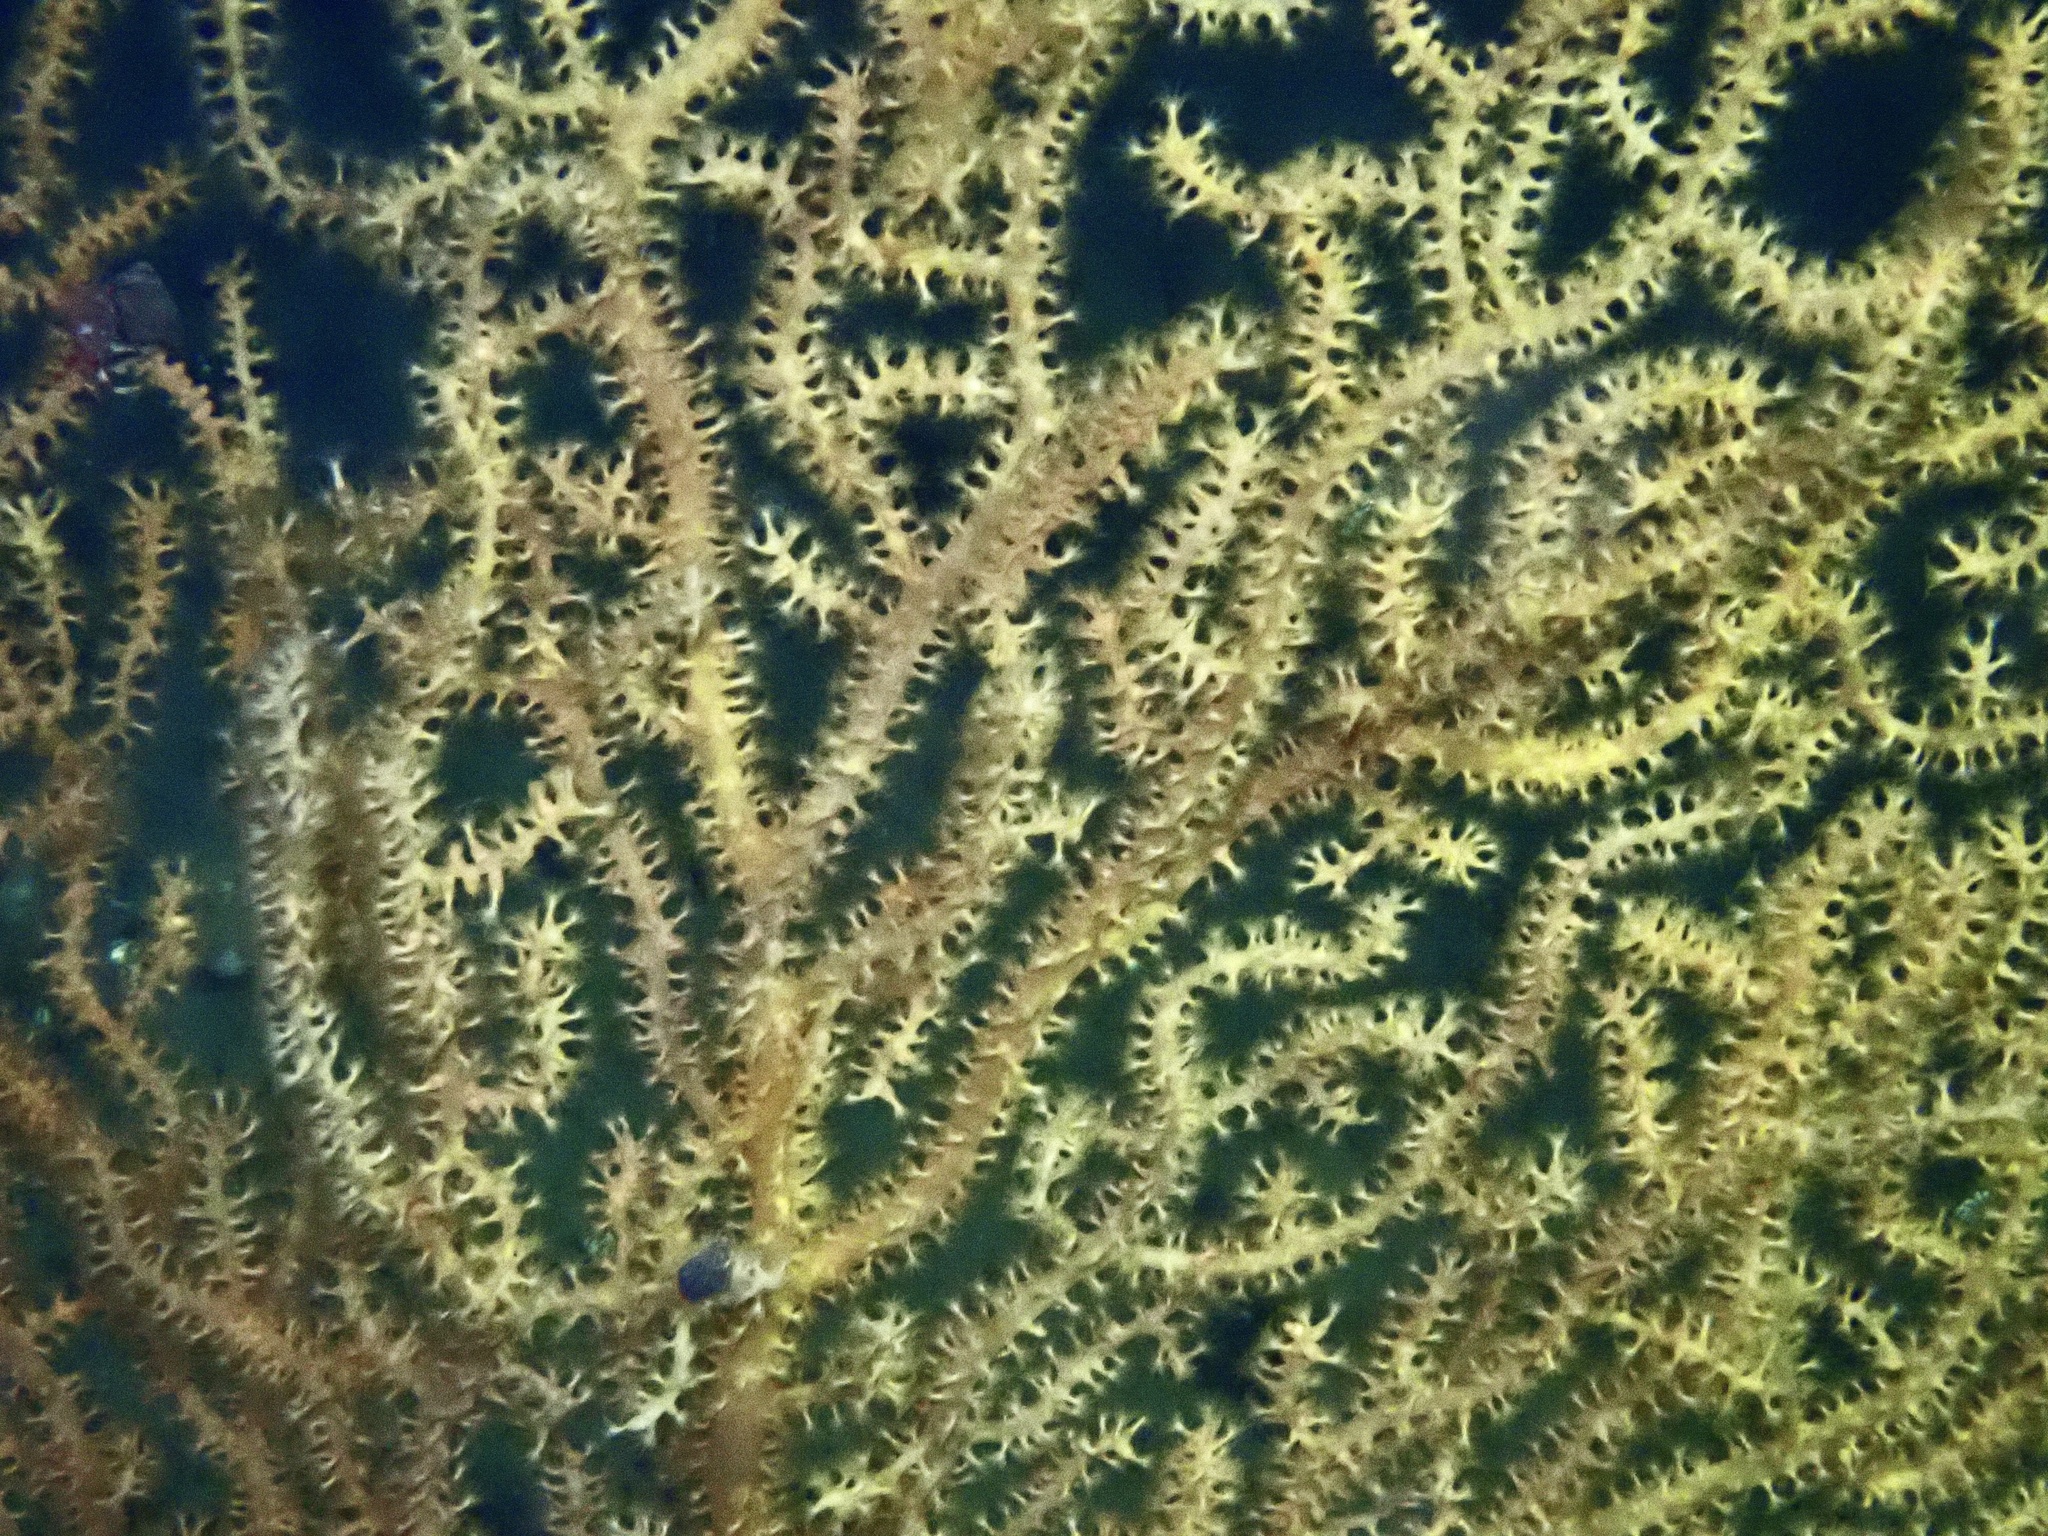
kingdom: Animalia
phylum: Cnidaria
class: Anthozoa
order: Malacalcyonacea
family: Paramuriceidae
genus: Paramuricea
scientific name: Paramuricea placomus
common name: Flattened sea fan coral
